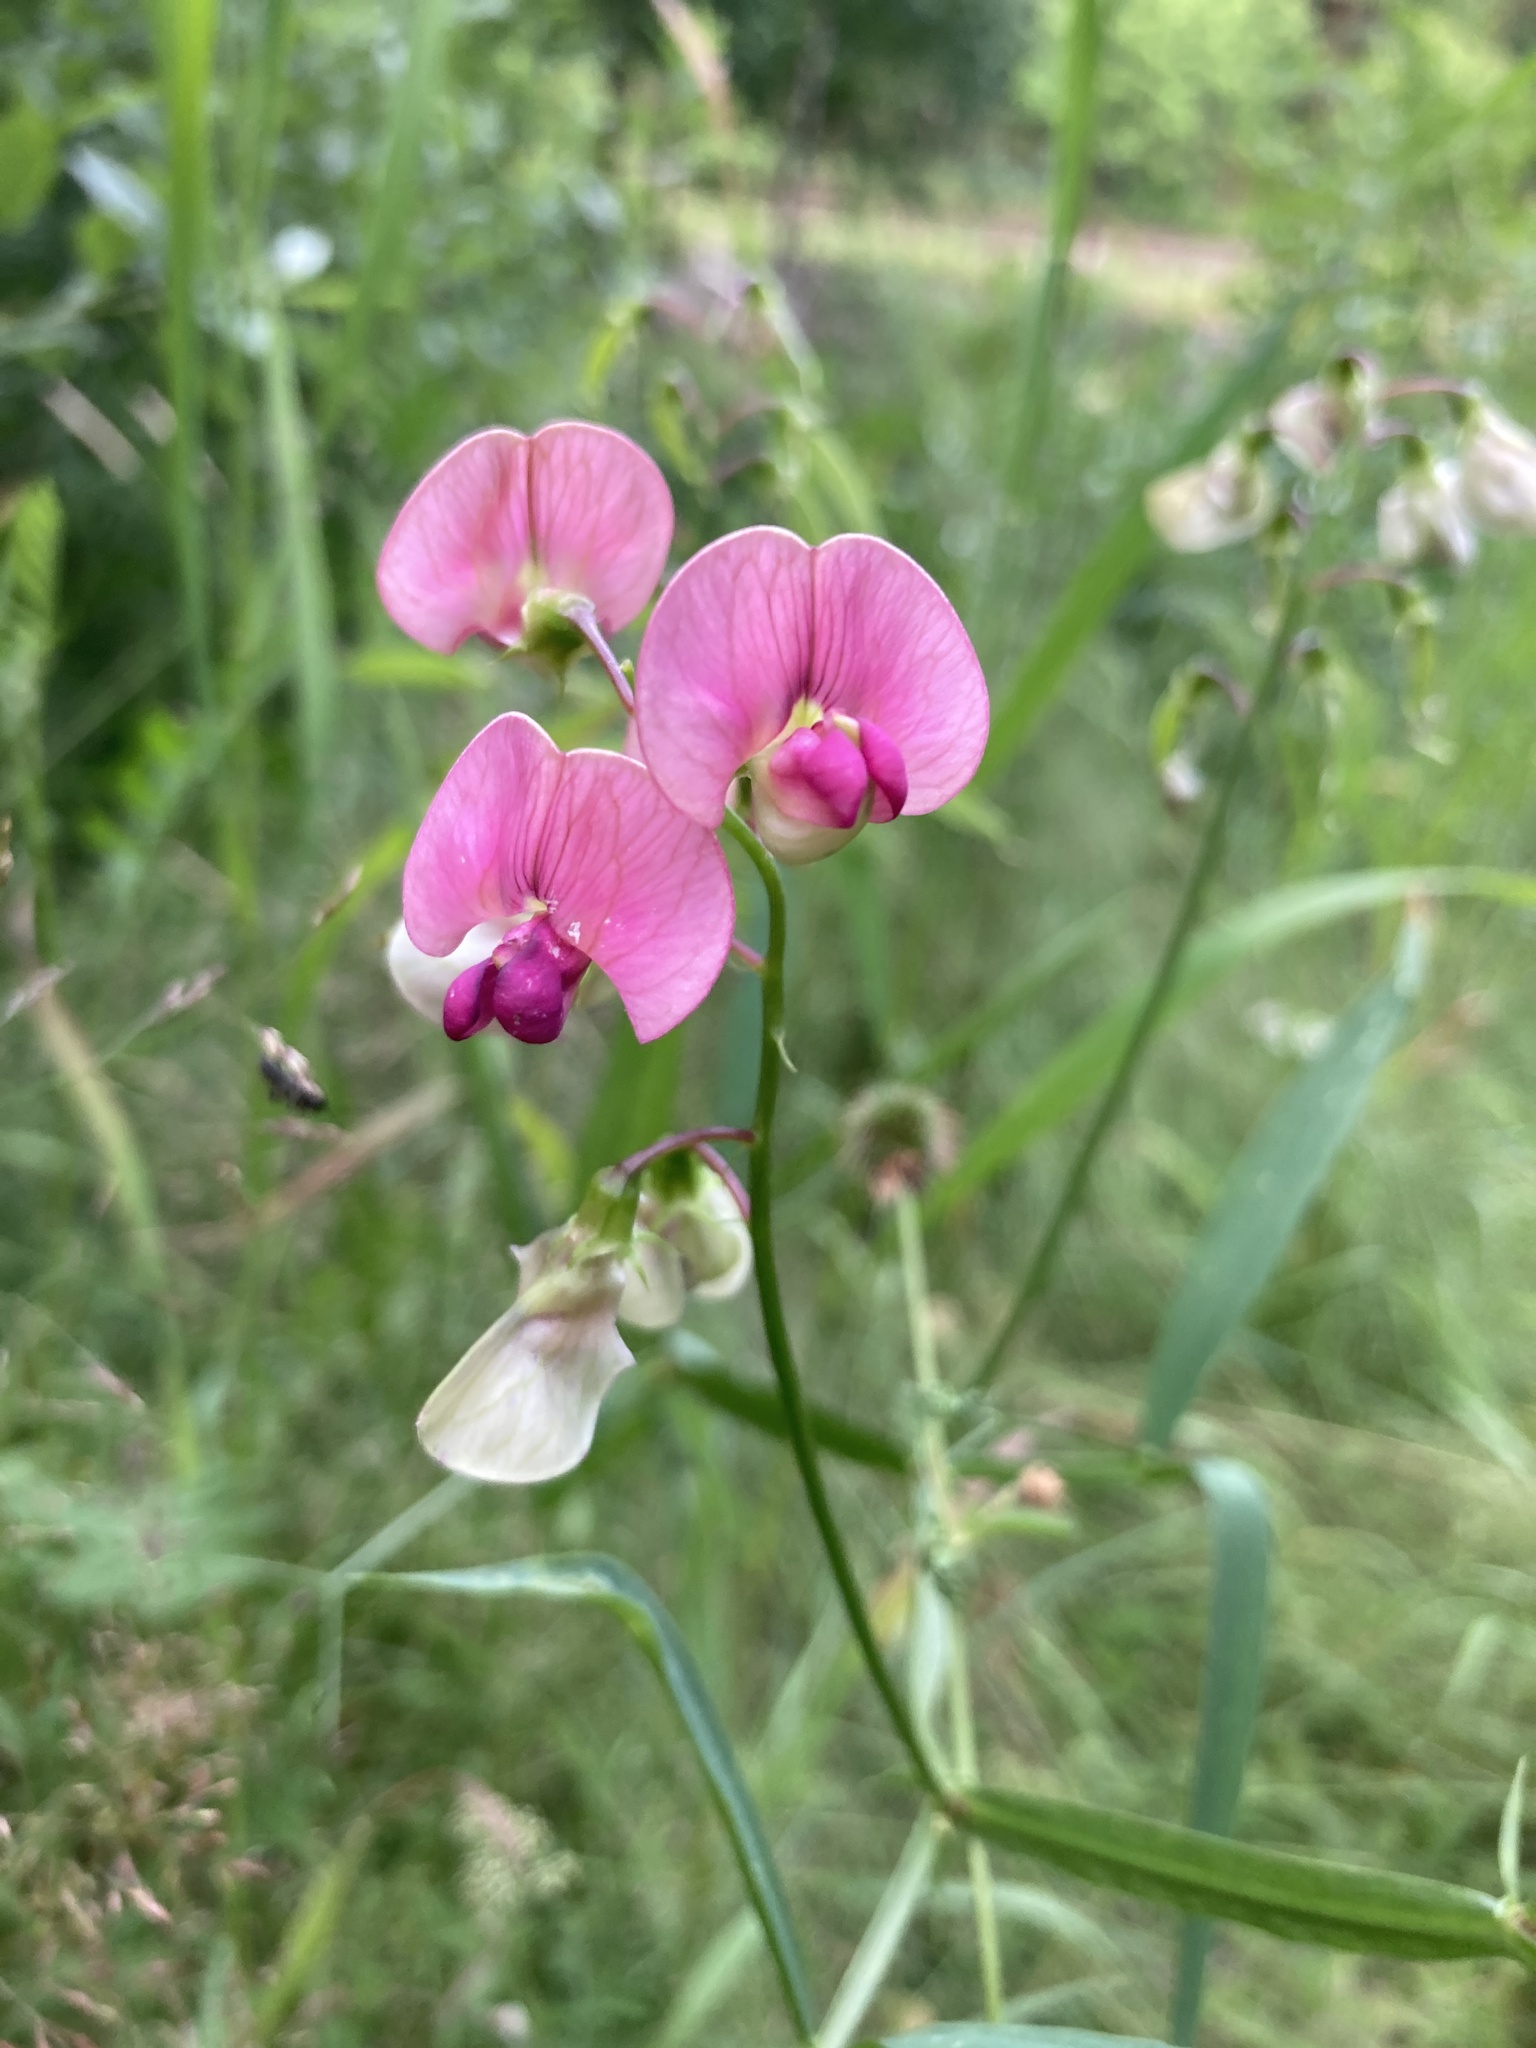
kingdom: Plantae
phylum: Tracheophyta
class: Magnoliopsida
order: Fabales
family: Fabaceae
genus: Lathyrus
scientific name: Lathyrus sylvestris
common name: Flat pea
